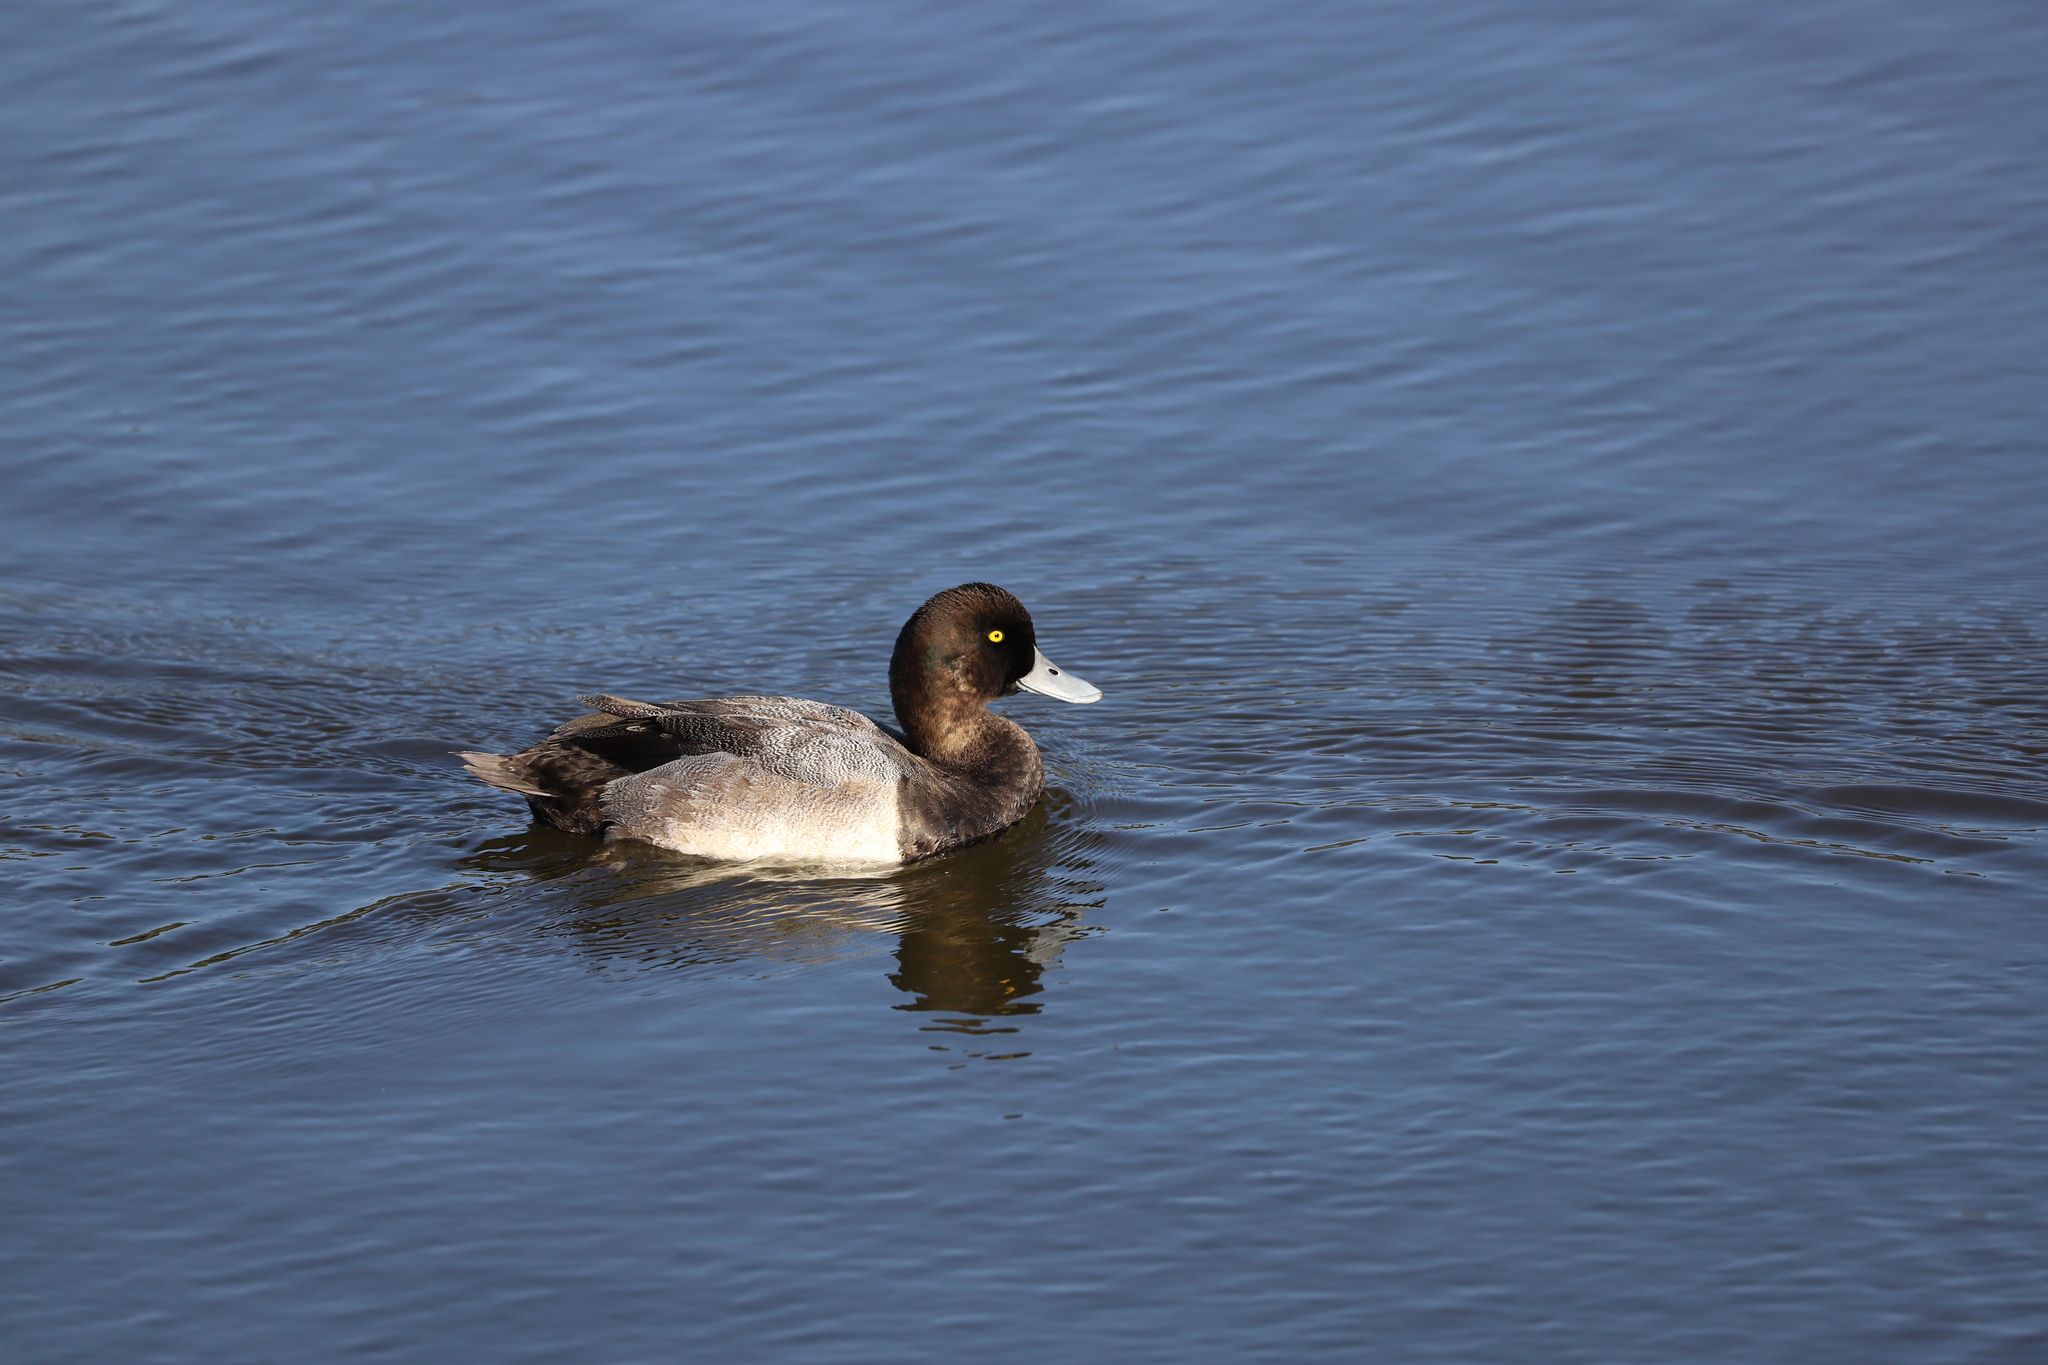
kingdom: Animalia
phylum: Chordata
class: Aves
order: Anseriformes
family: Anatidae
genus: Aythya
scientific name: Aythya marila
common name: Greater scaup
